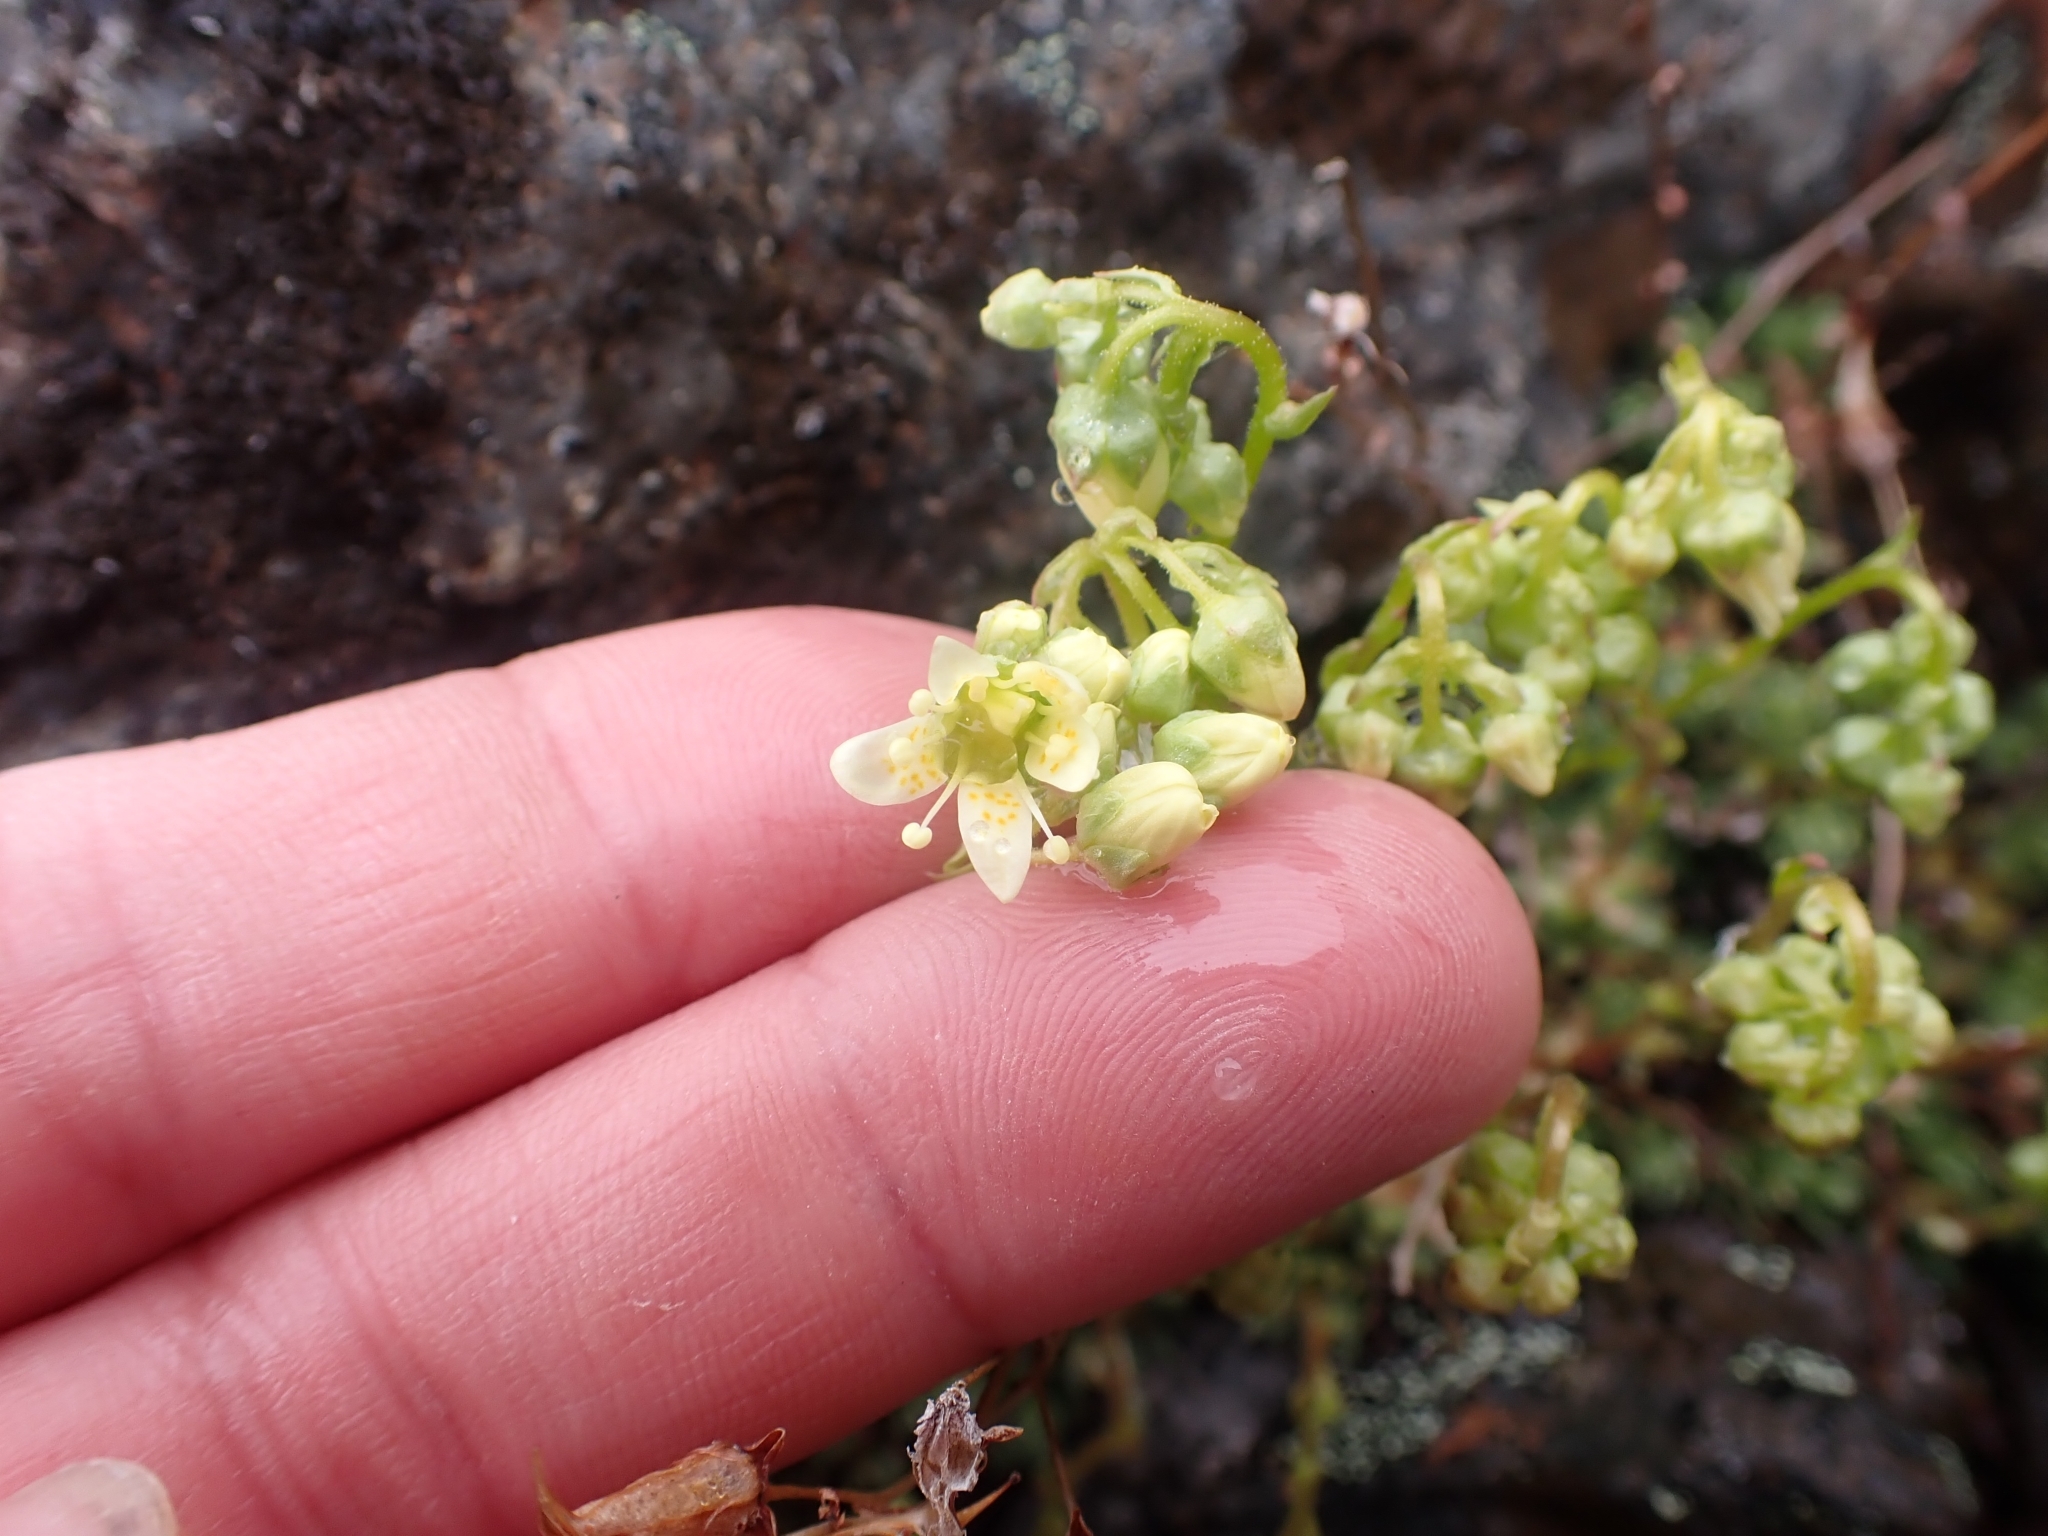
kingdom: Plantae
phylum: Tracheophyta
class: Magnoliopsida
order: Saxifragales
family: Saxifragaceae
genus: Saxifraga
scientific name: Saxifraga bronchialis
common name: Matted saxifrage
